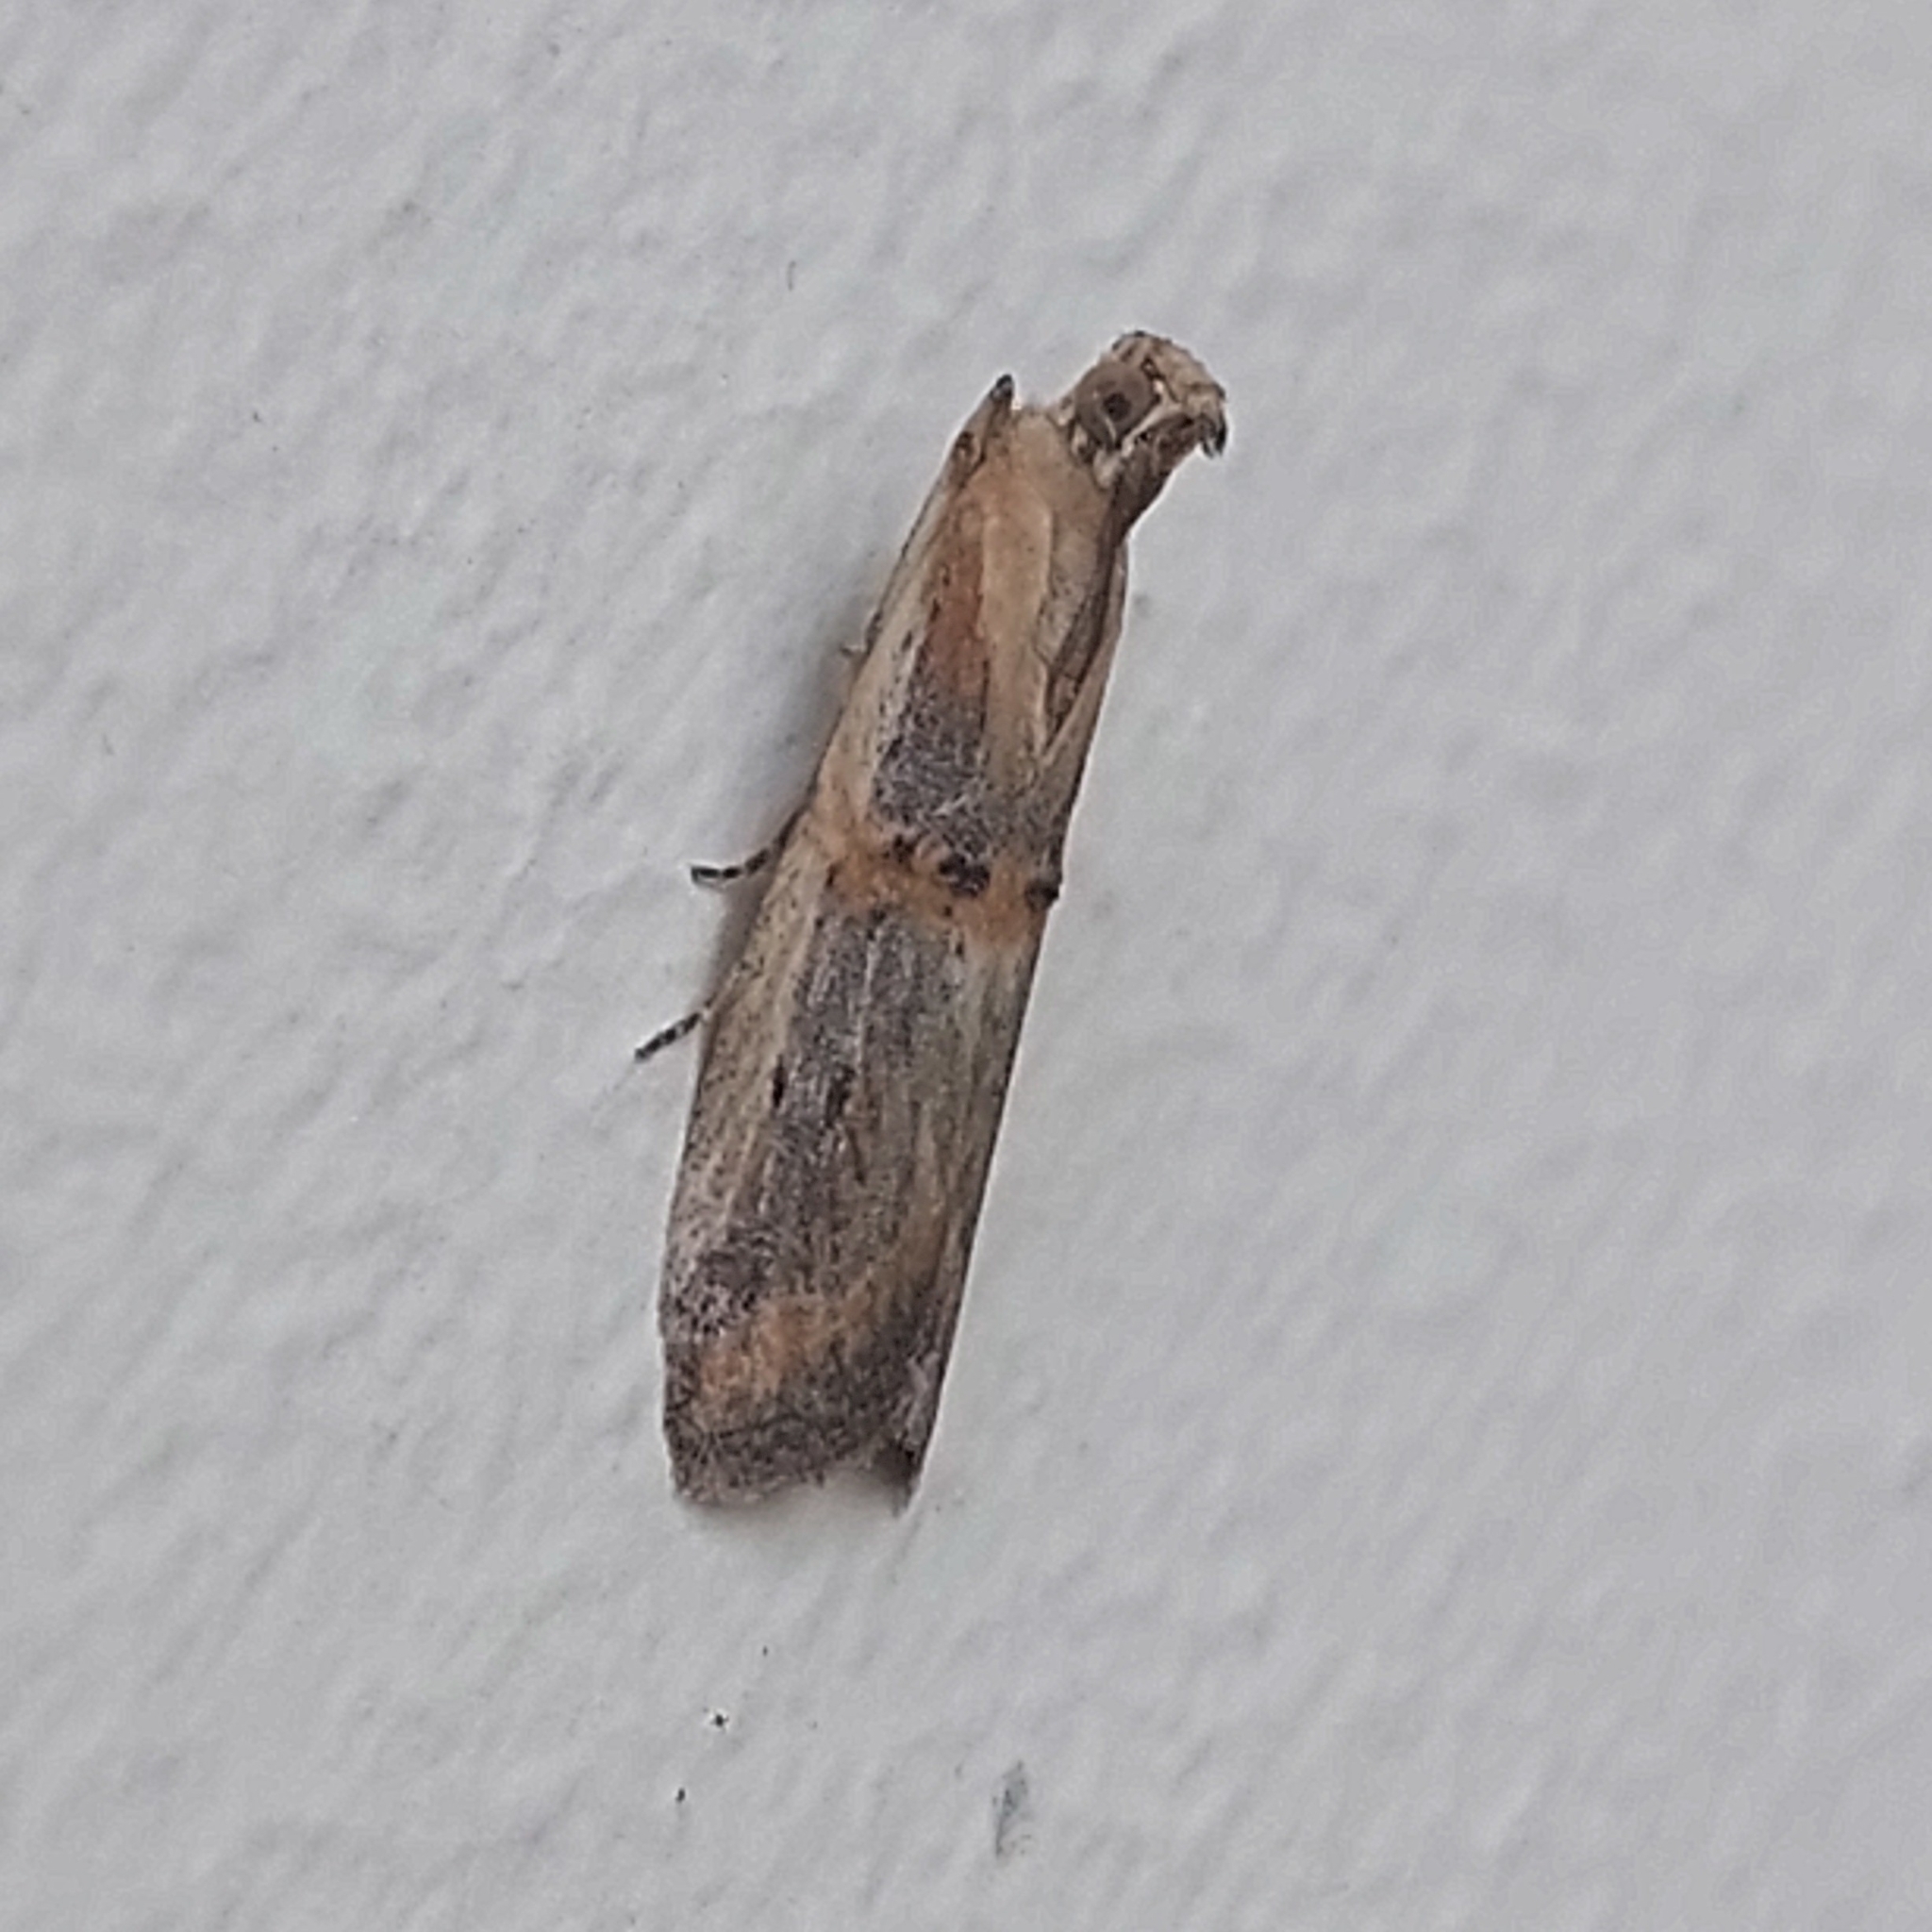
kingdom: Animalia
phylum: Arthropoda
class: Insecta
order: Lepidoptera
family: Pyralidae
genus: Psorosa
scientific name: Psorosa dahliella
